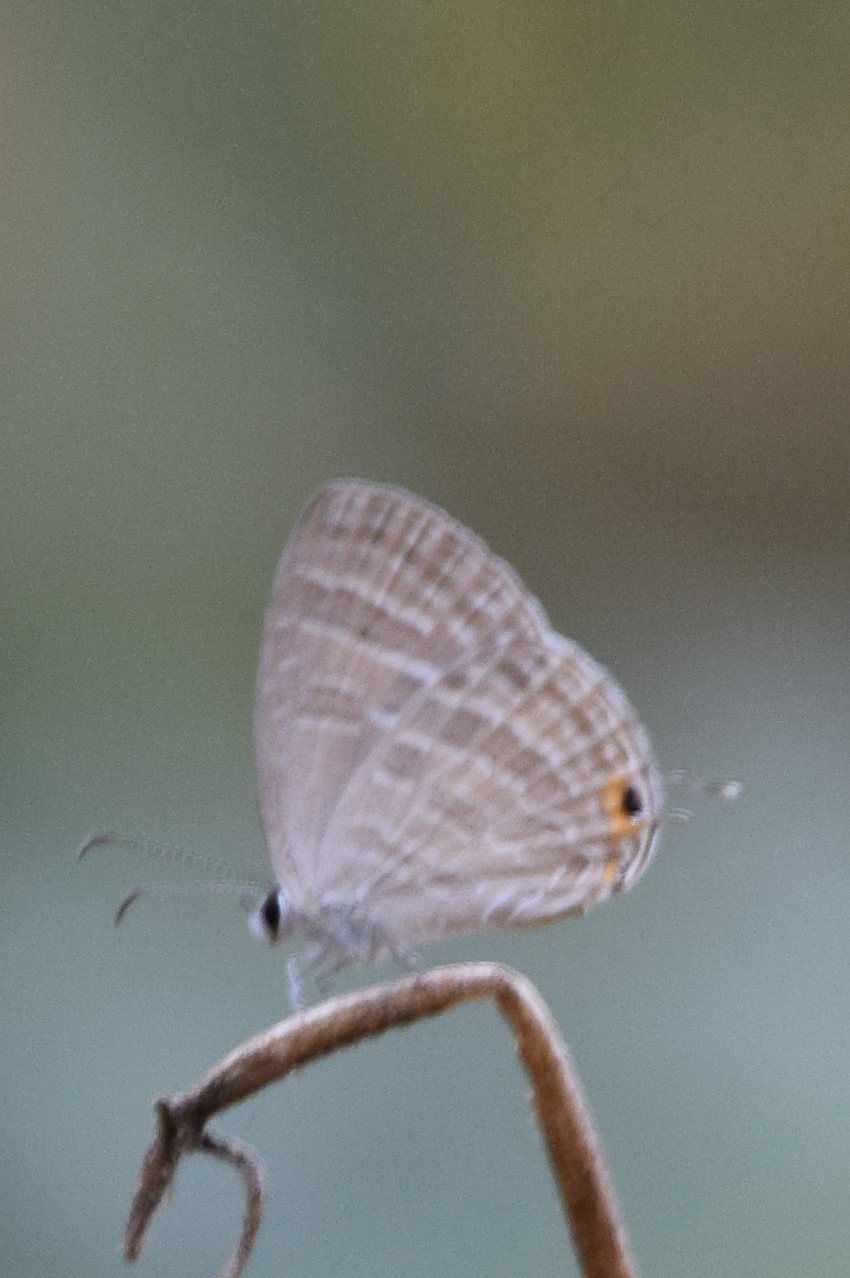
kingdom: Animalia
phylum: Arthropoda
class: Insecta
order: Lepidoptera
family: Lycaenidae
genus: Jamides
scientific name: Jamides celeno
